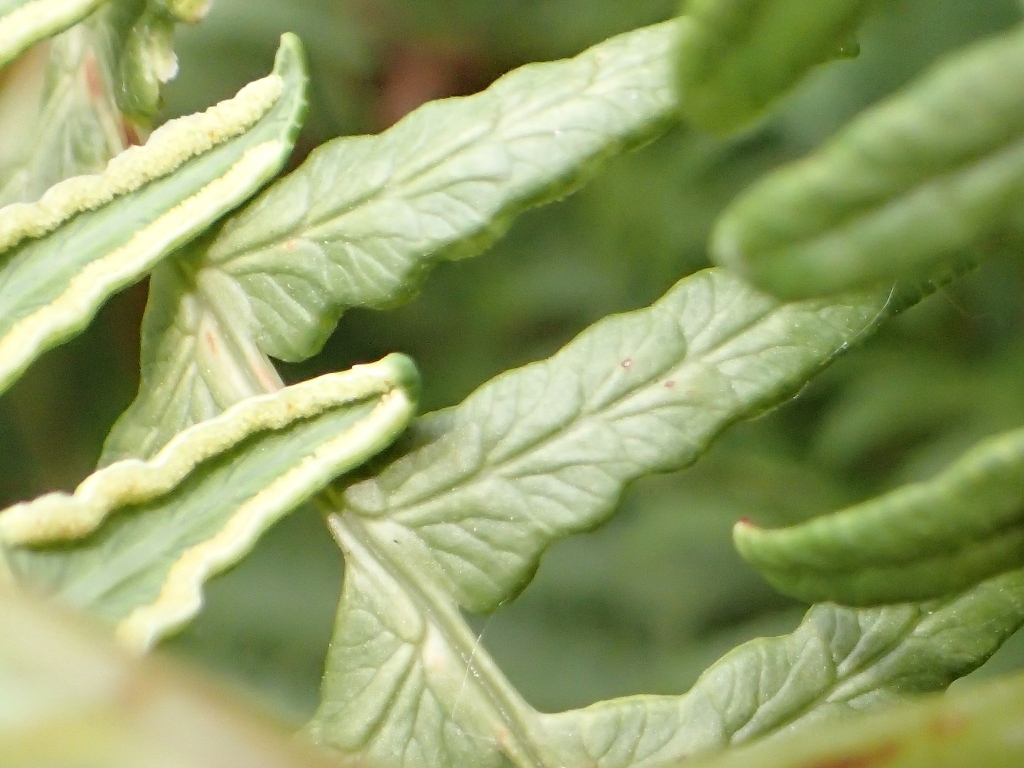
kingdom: Plantae
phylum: Tracheophyta
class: Polypodiopsida
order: Polypodiales
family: Dennstaedtiaceae
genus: Histiopteris
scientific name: Histiopteris incisa
